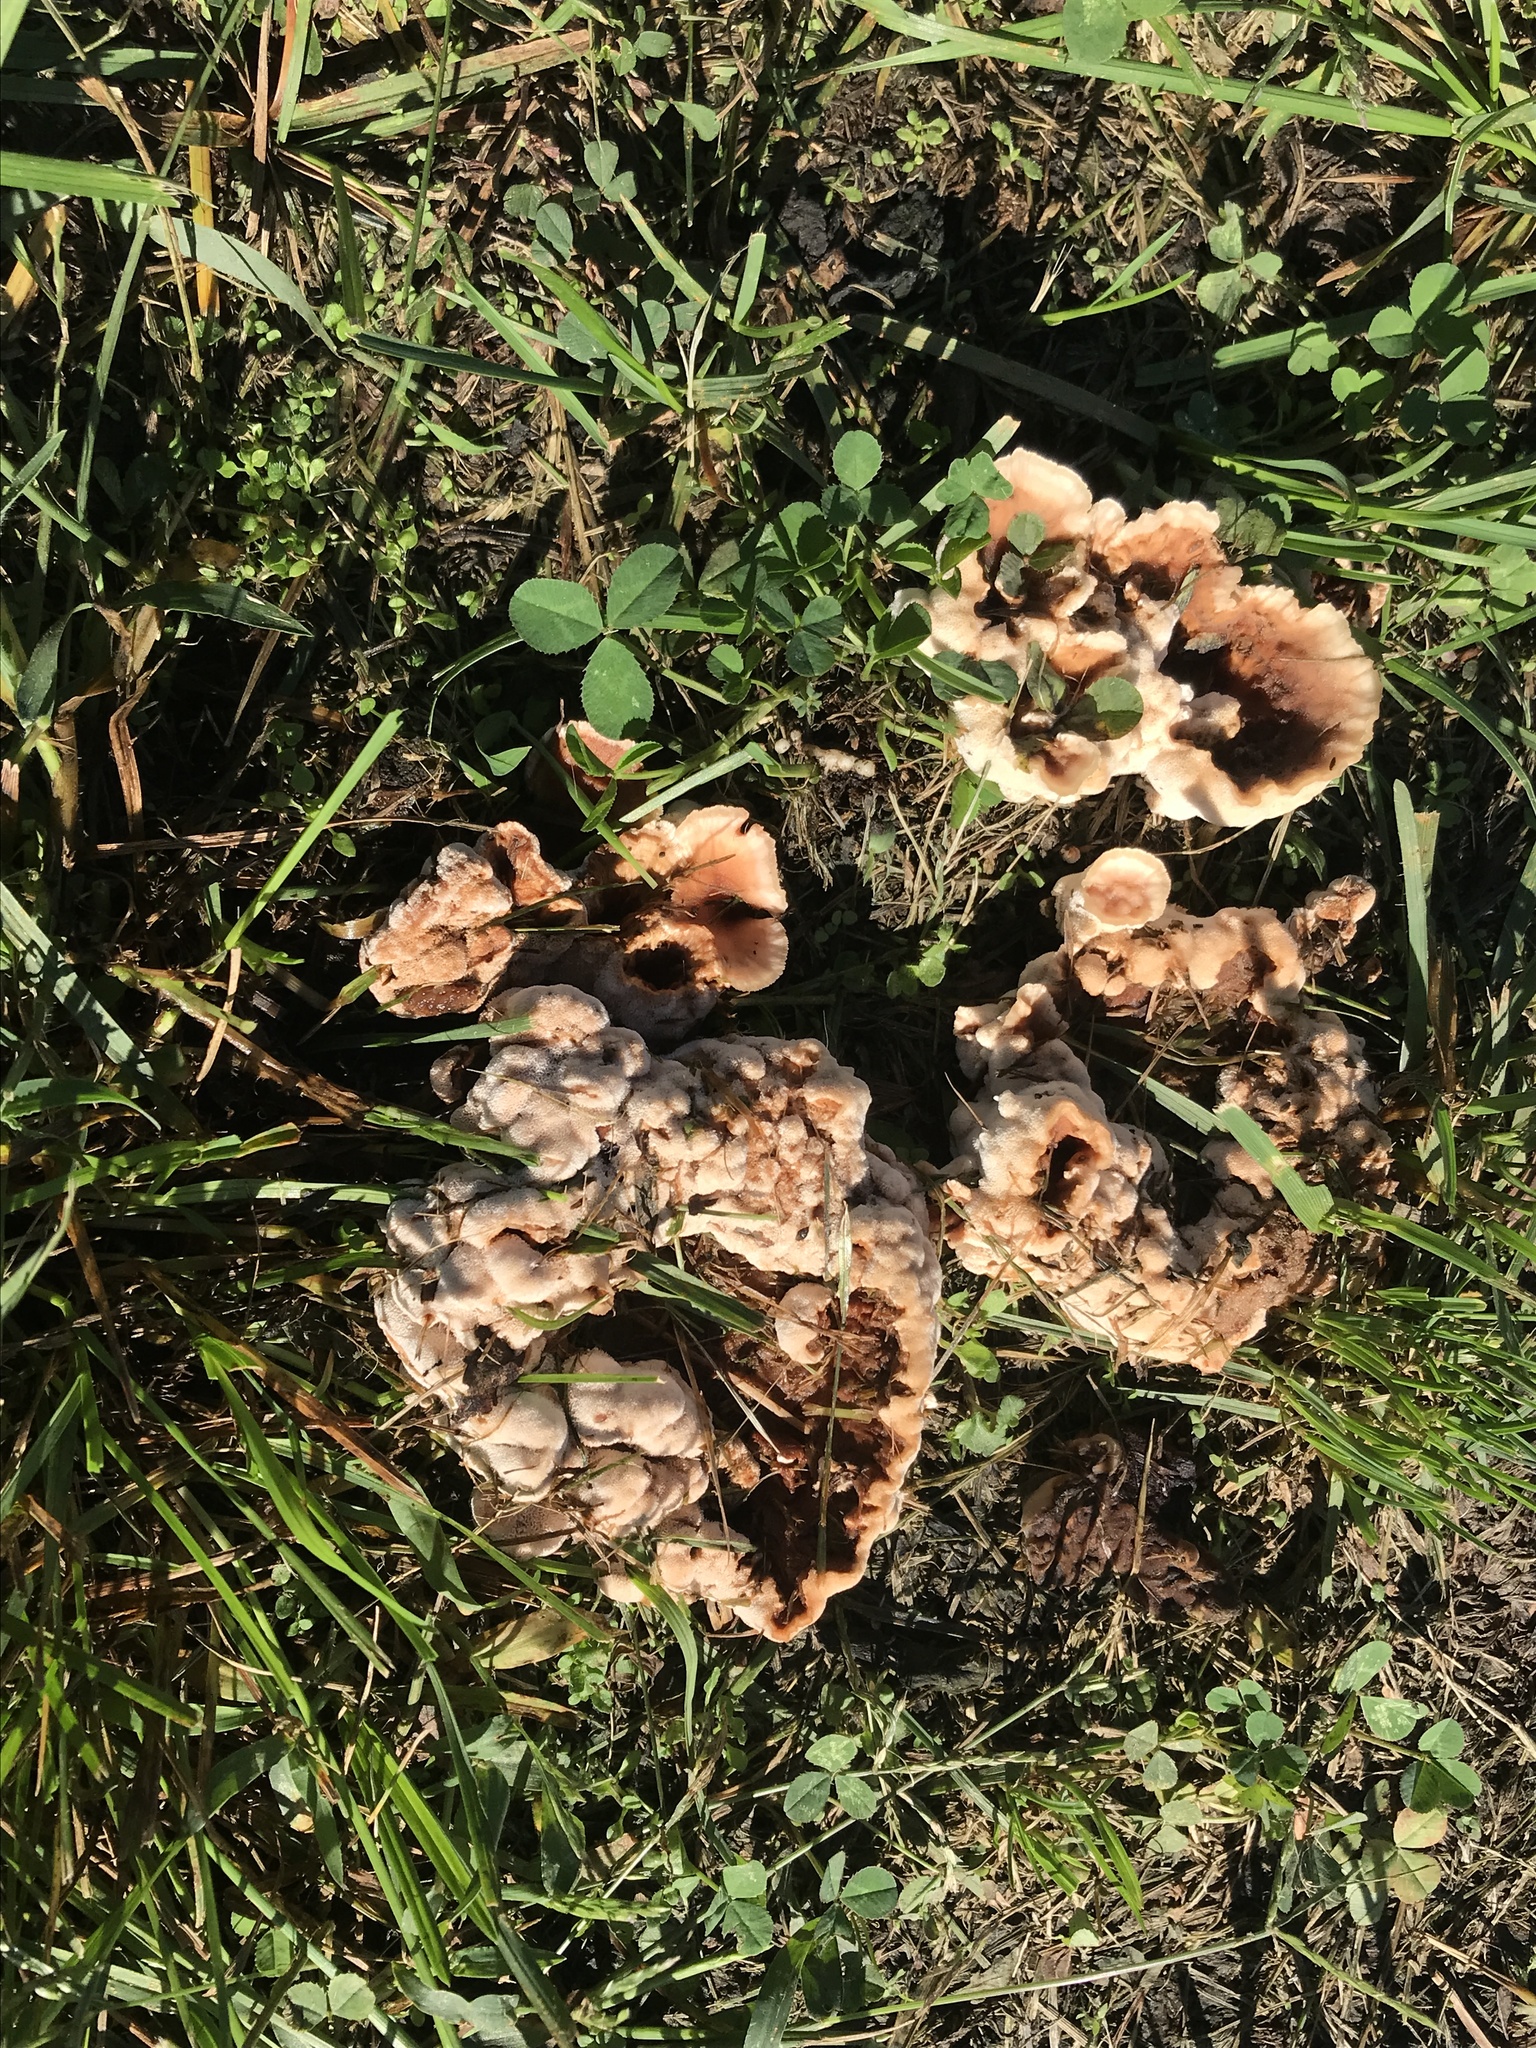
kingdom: Fungi
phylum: Basidiomycota
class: Agaricomycetes
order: Polyporales
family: Podoscyphaceae
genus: Abortiporus
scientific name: Abortiporus biennis
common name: Blushing rosette
